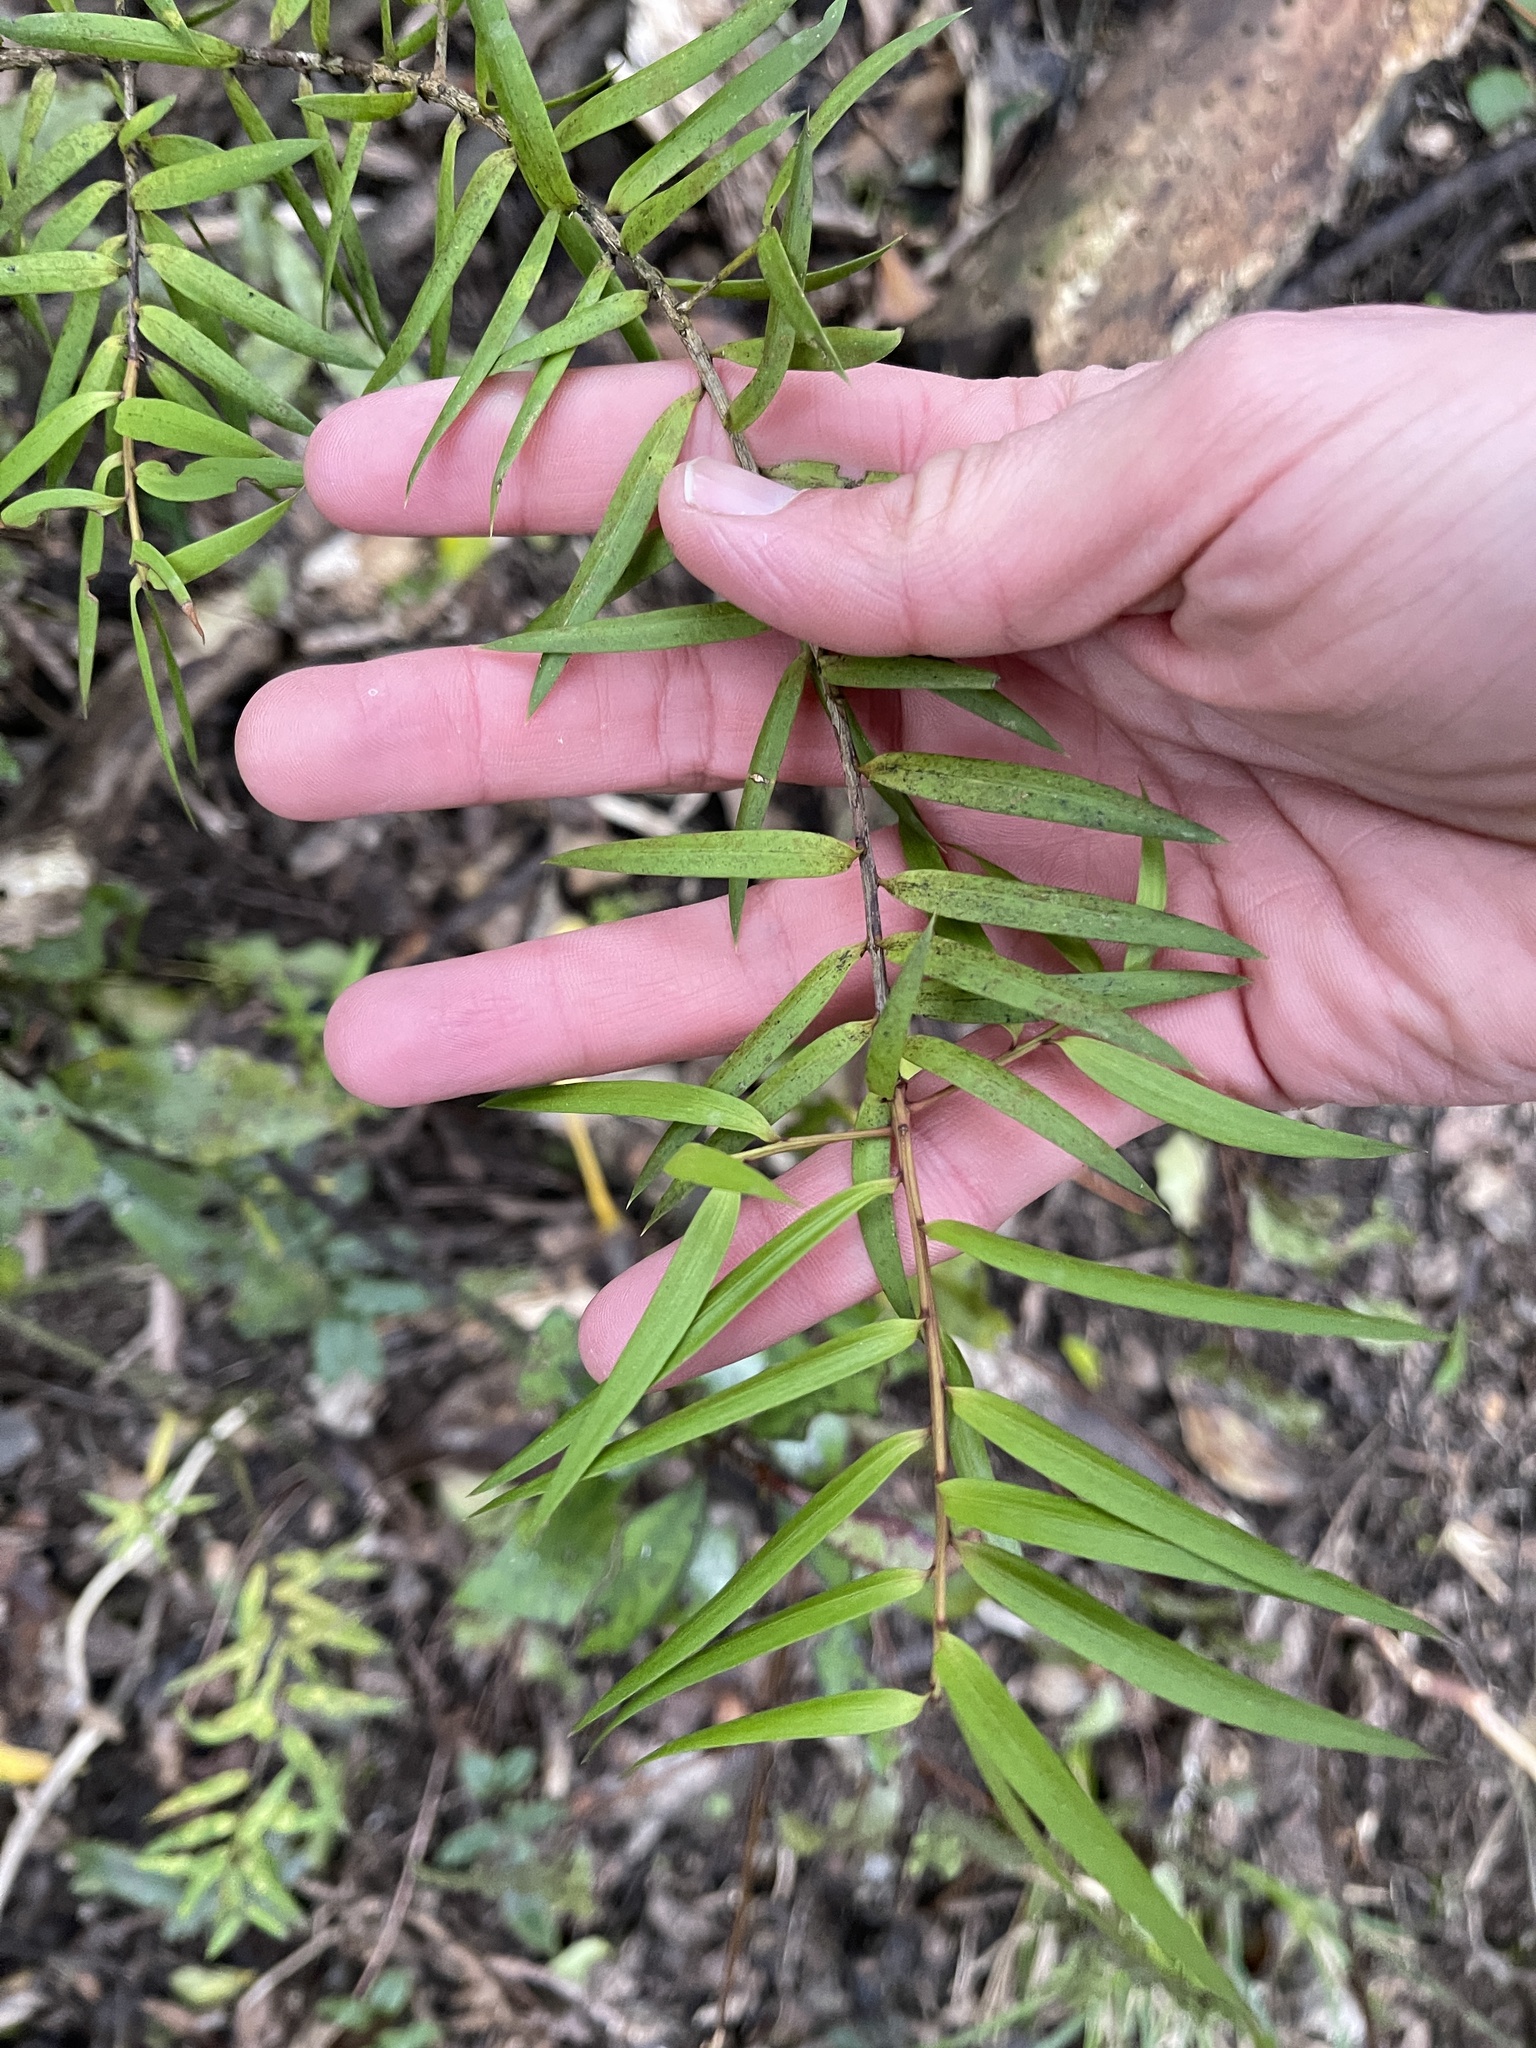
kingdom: Plantae
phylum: Tracheophyta
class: Pinopsida
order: Pinales
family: Podocarpaceae
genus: Podocarpus
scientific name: Podocarpus laetus
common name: Hall's totara
